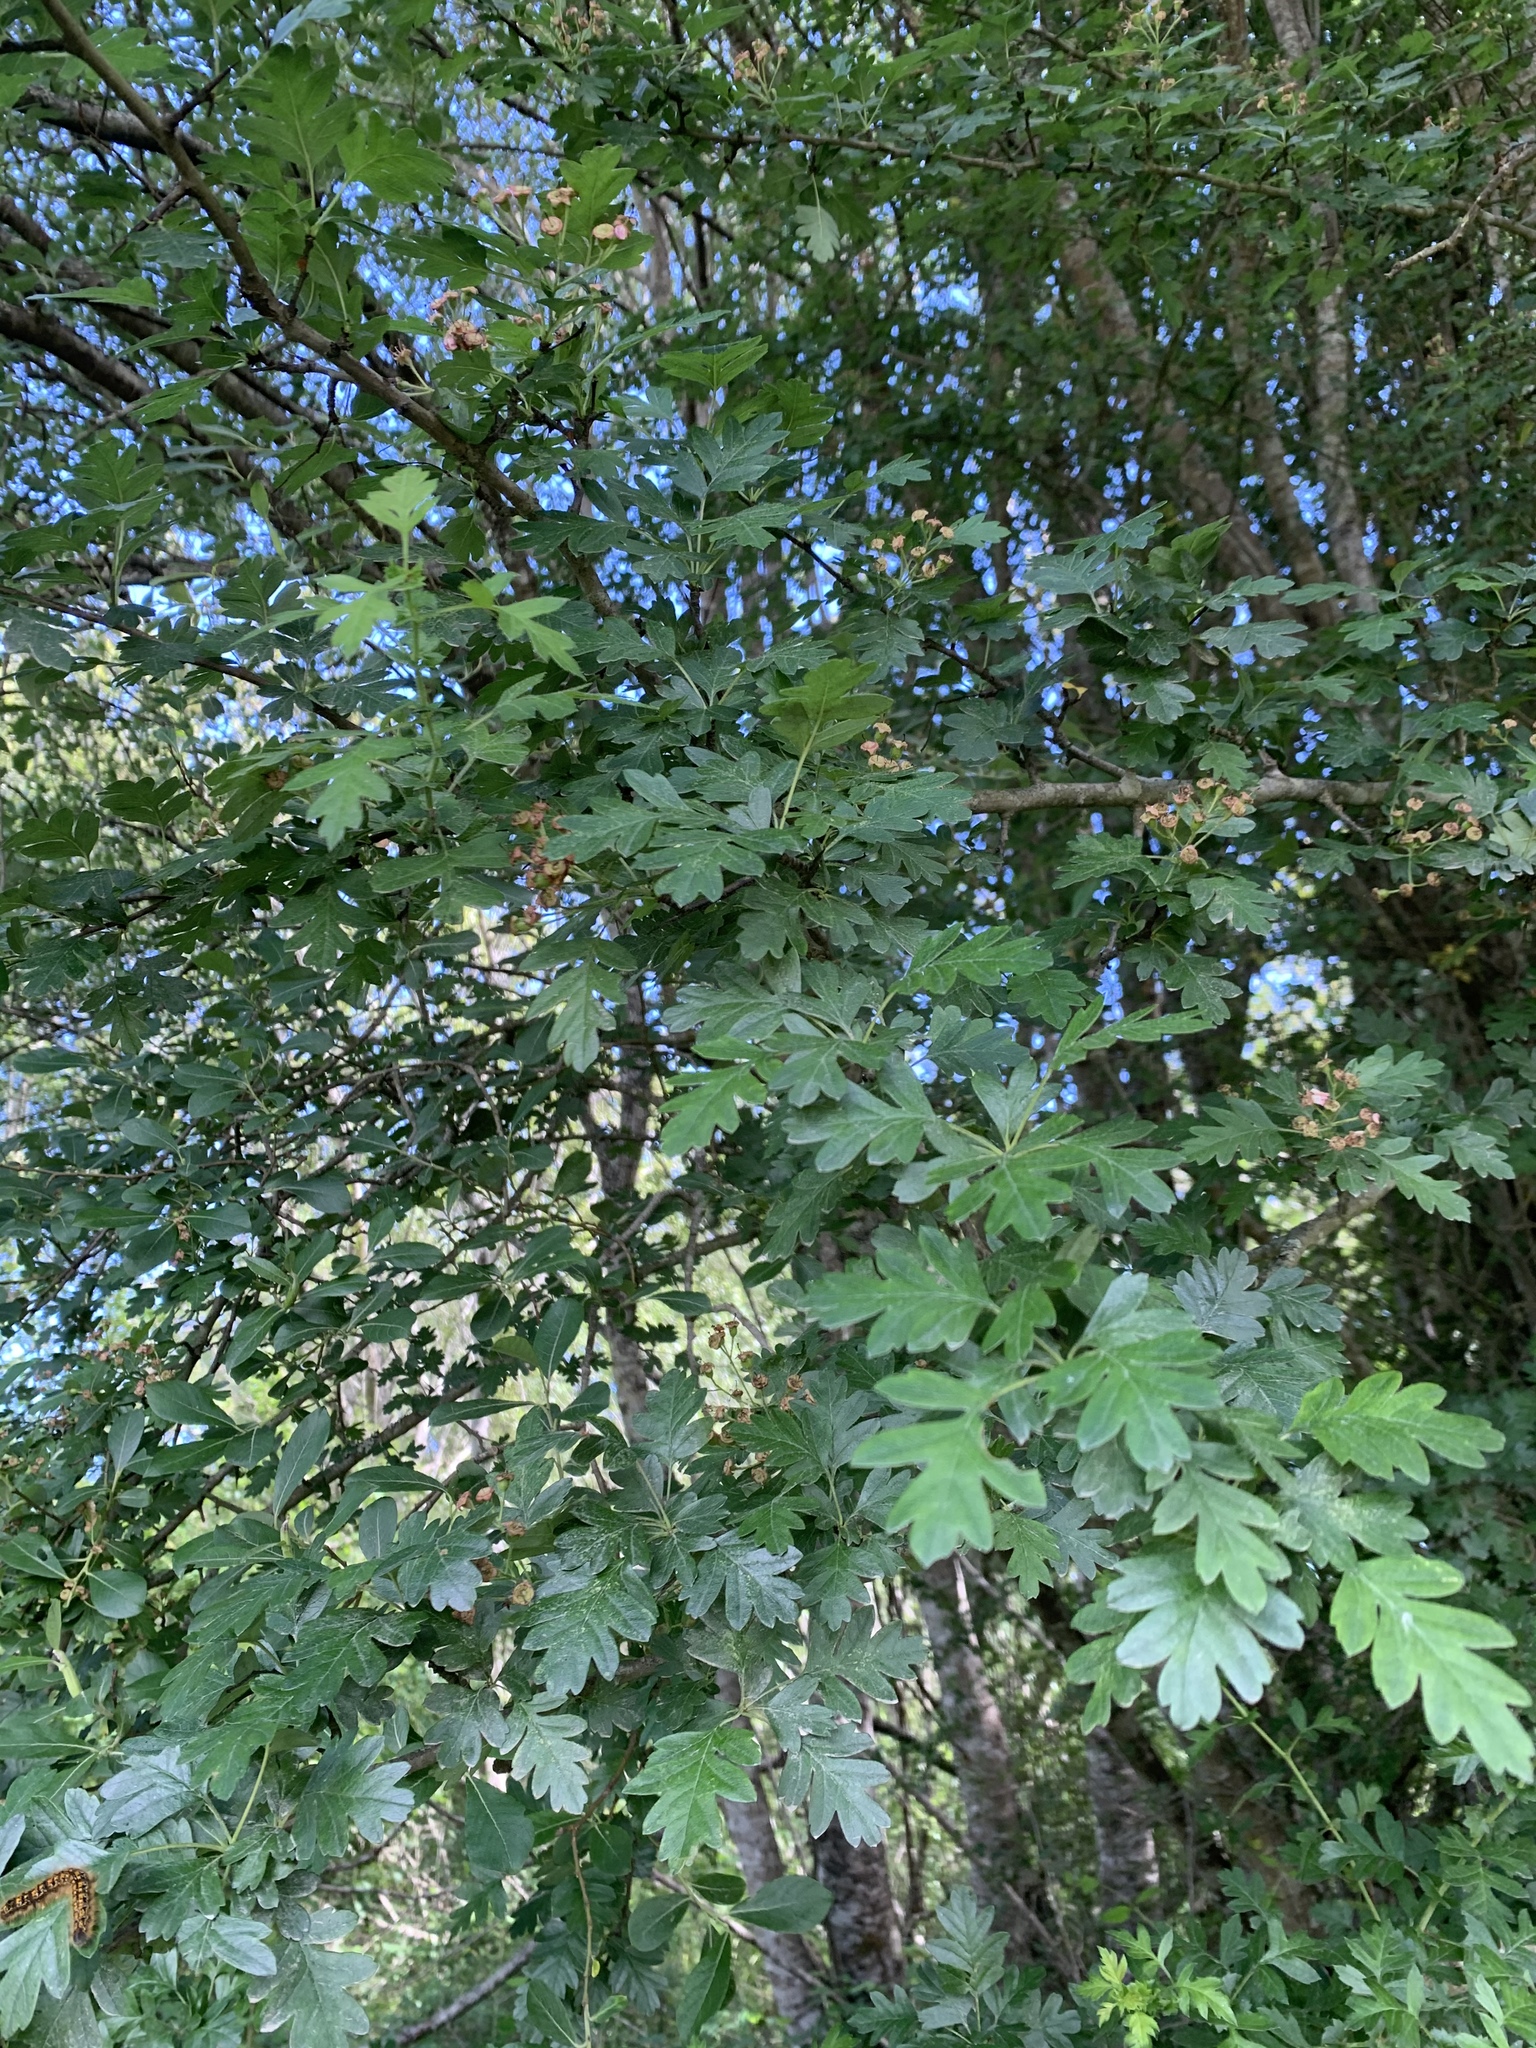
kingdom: Plantae
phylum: Tracheophyta
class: Magnoliopsida
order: Rosales
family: Rosaceae
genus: Crataegus
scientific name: Crataegus monogyna
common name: Hawthorn
